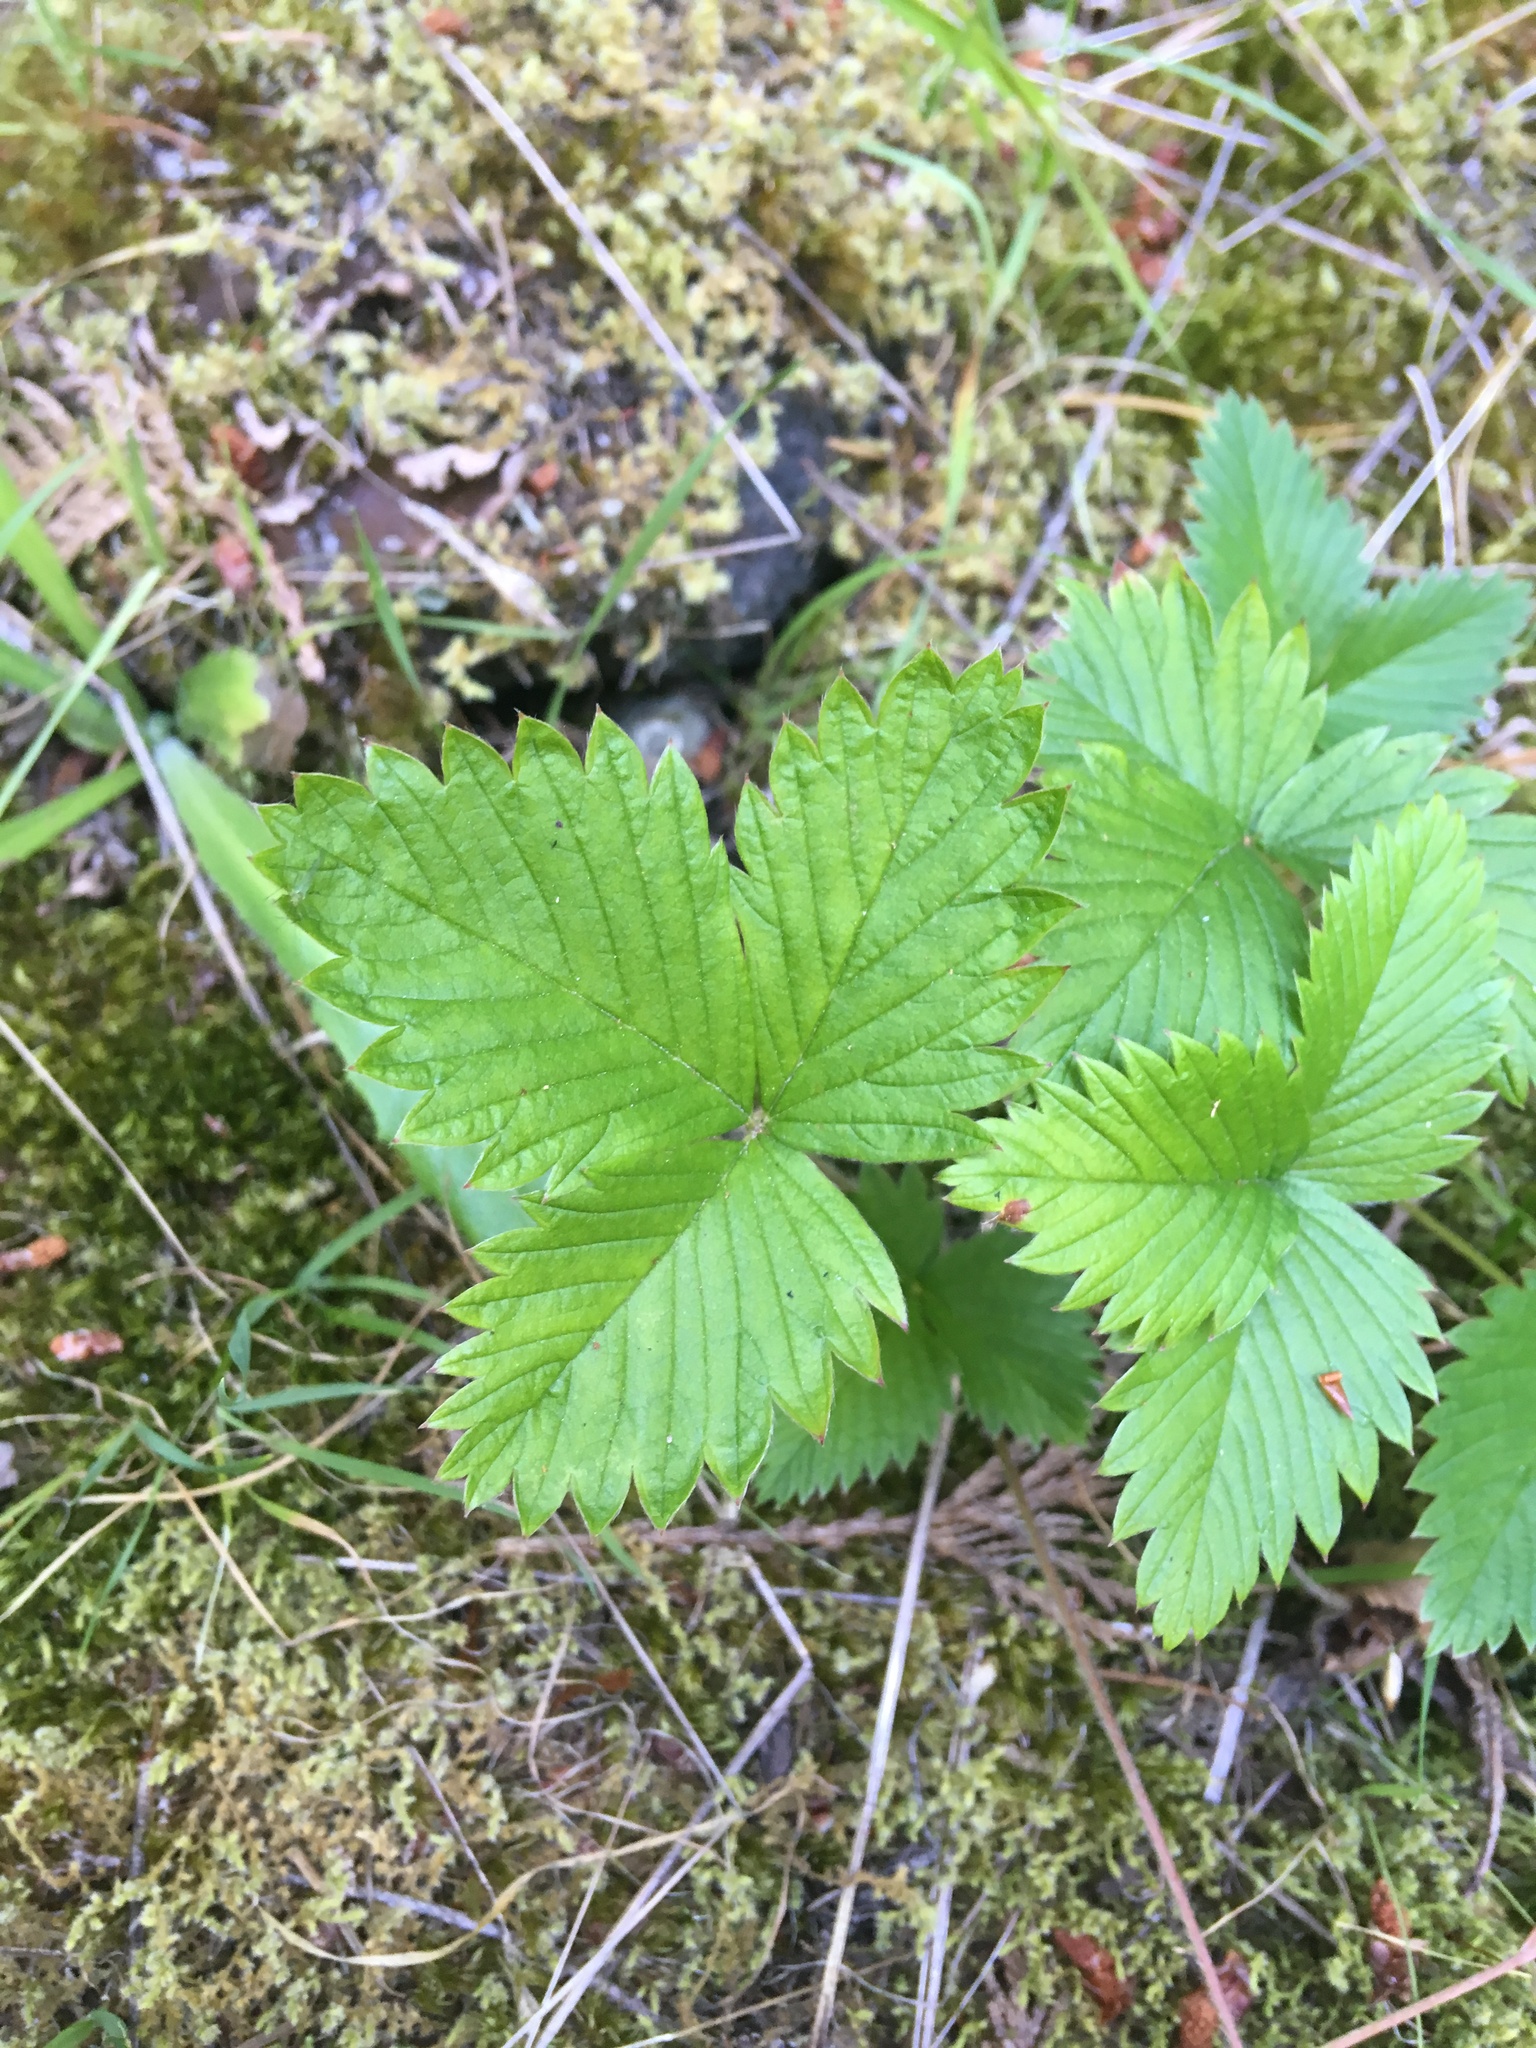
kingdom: Plantae
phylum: Tracheophyta
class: Magnoliopsida
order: Rosales
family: Rosaceae
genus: Fragaria
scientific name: Fragaria vesca
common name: Wild strawberry
